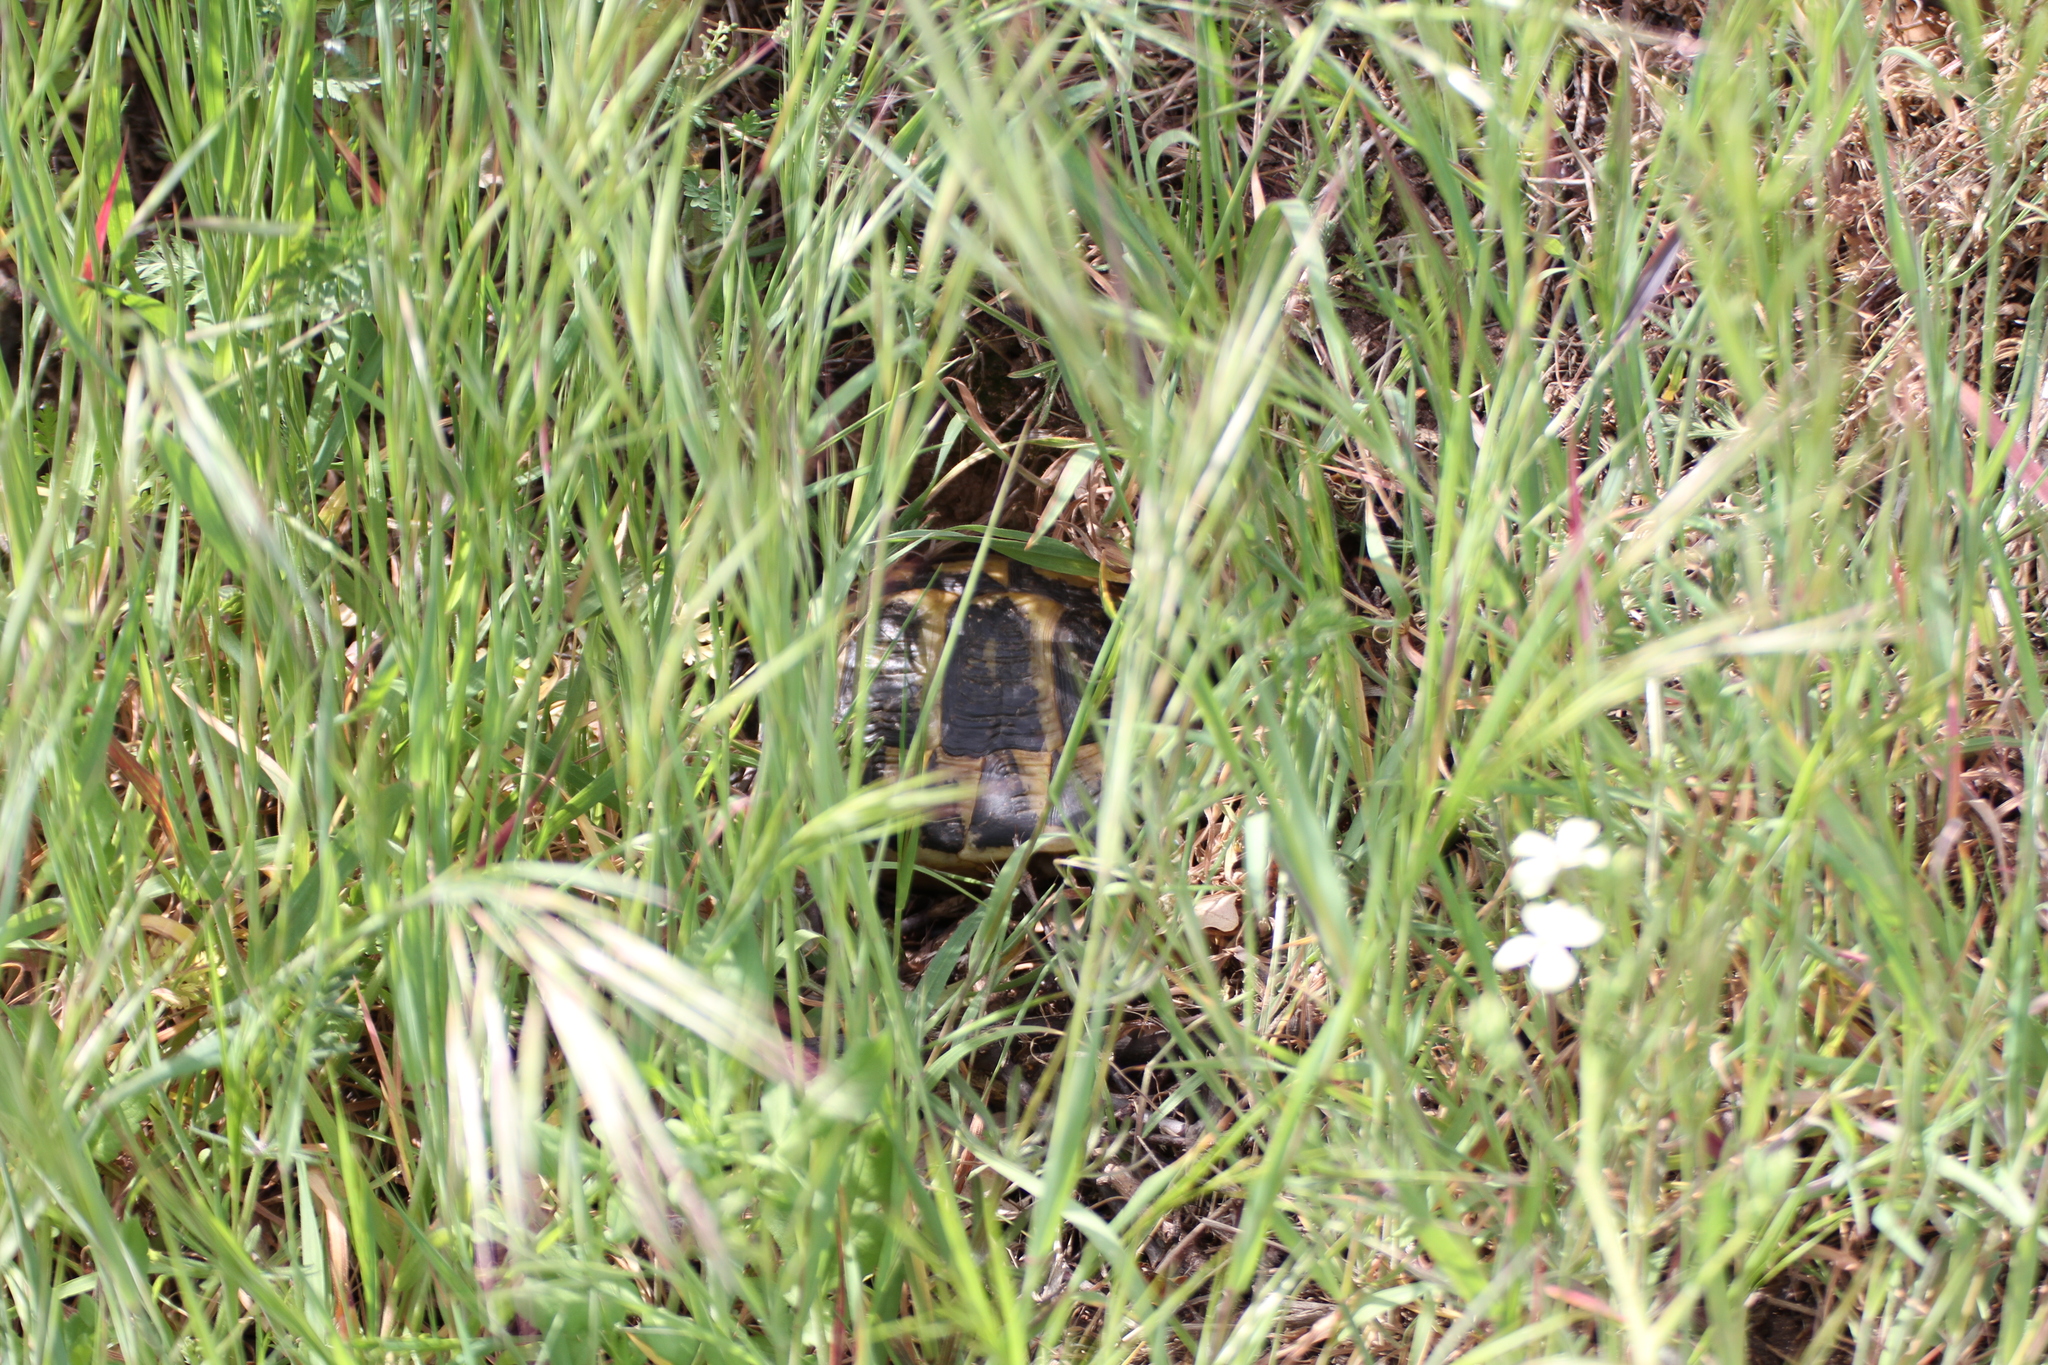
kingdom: Animalia
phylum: Chordata
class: Testudines
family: Testudinidae
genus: Testudo
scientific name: Testudo hermanni
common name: Hermann's tortoise
